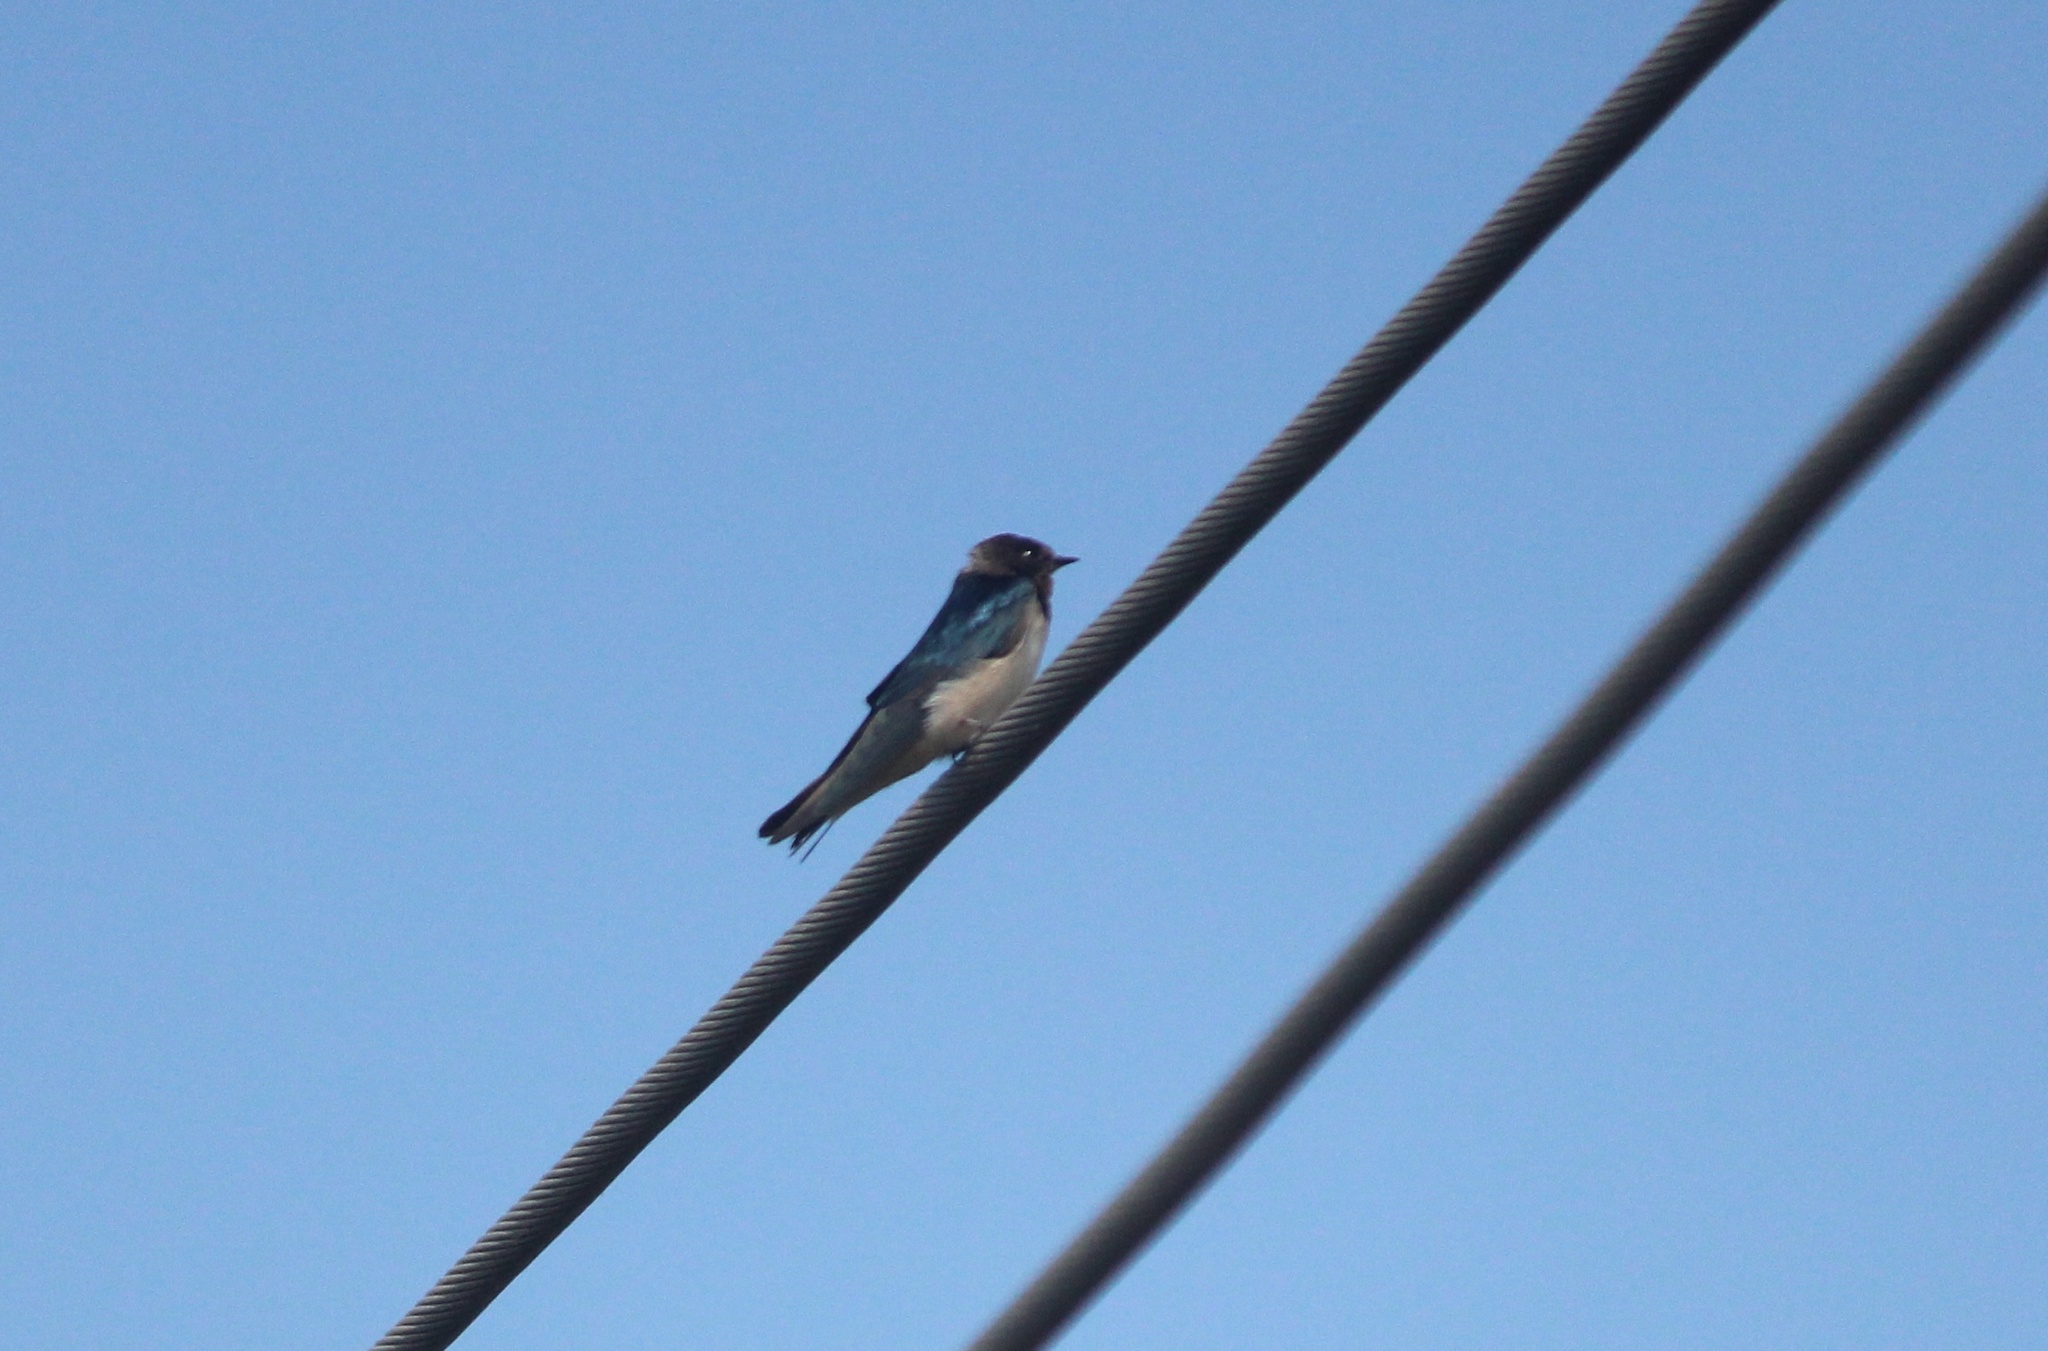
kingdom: Animalia
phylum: Chordata
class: Aves
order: Passeriformes
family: Hirundinidae
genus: Hirundo
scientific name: Hirundo rustica
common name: Barn swallow
